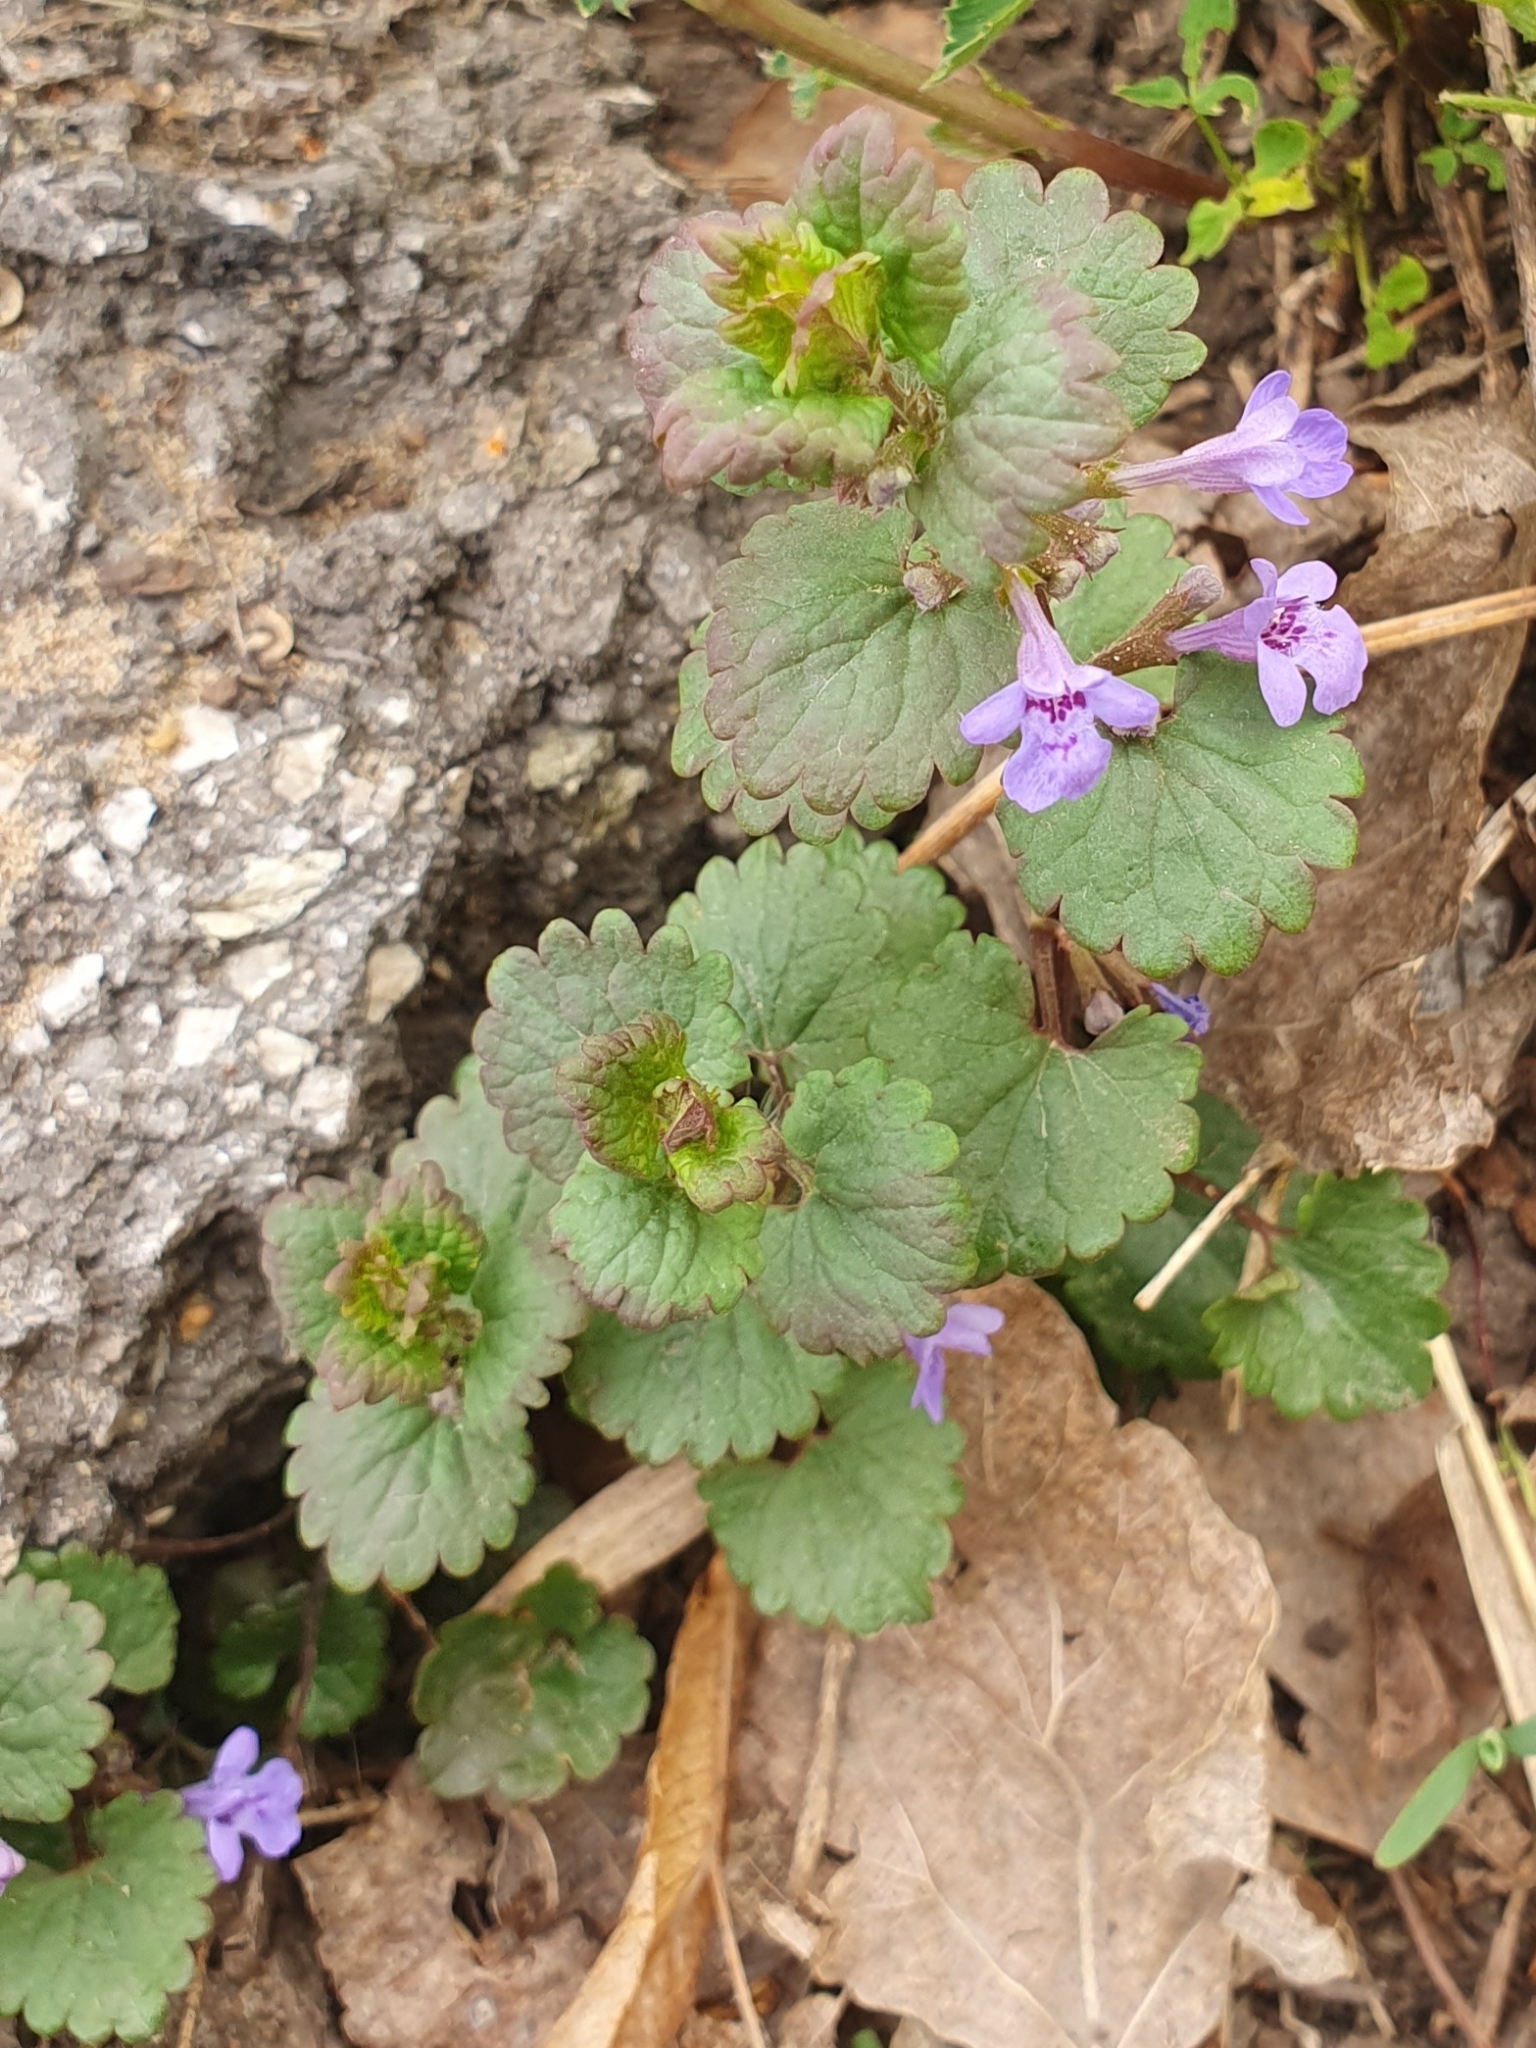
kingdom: Plantae
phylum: Tracheophyta
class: Magnoliopsida
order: Lamiales
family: Lamiaceae
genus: Glechoma
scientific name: Glechoma hederacea
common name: Ground ivy
